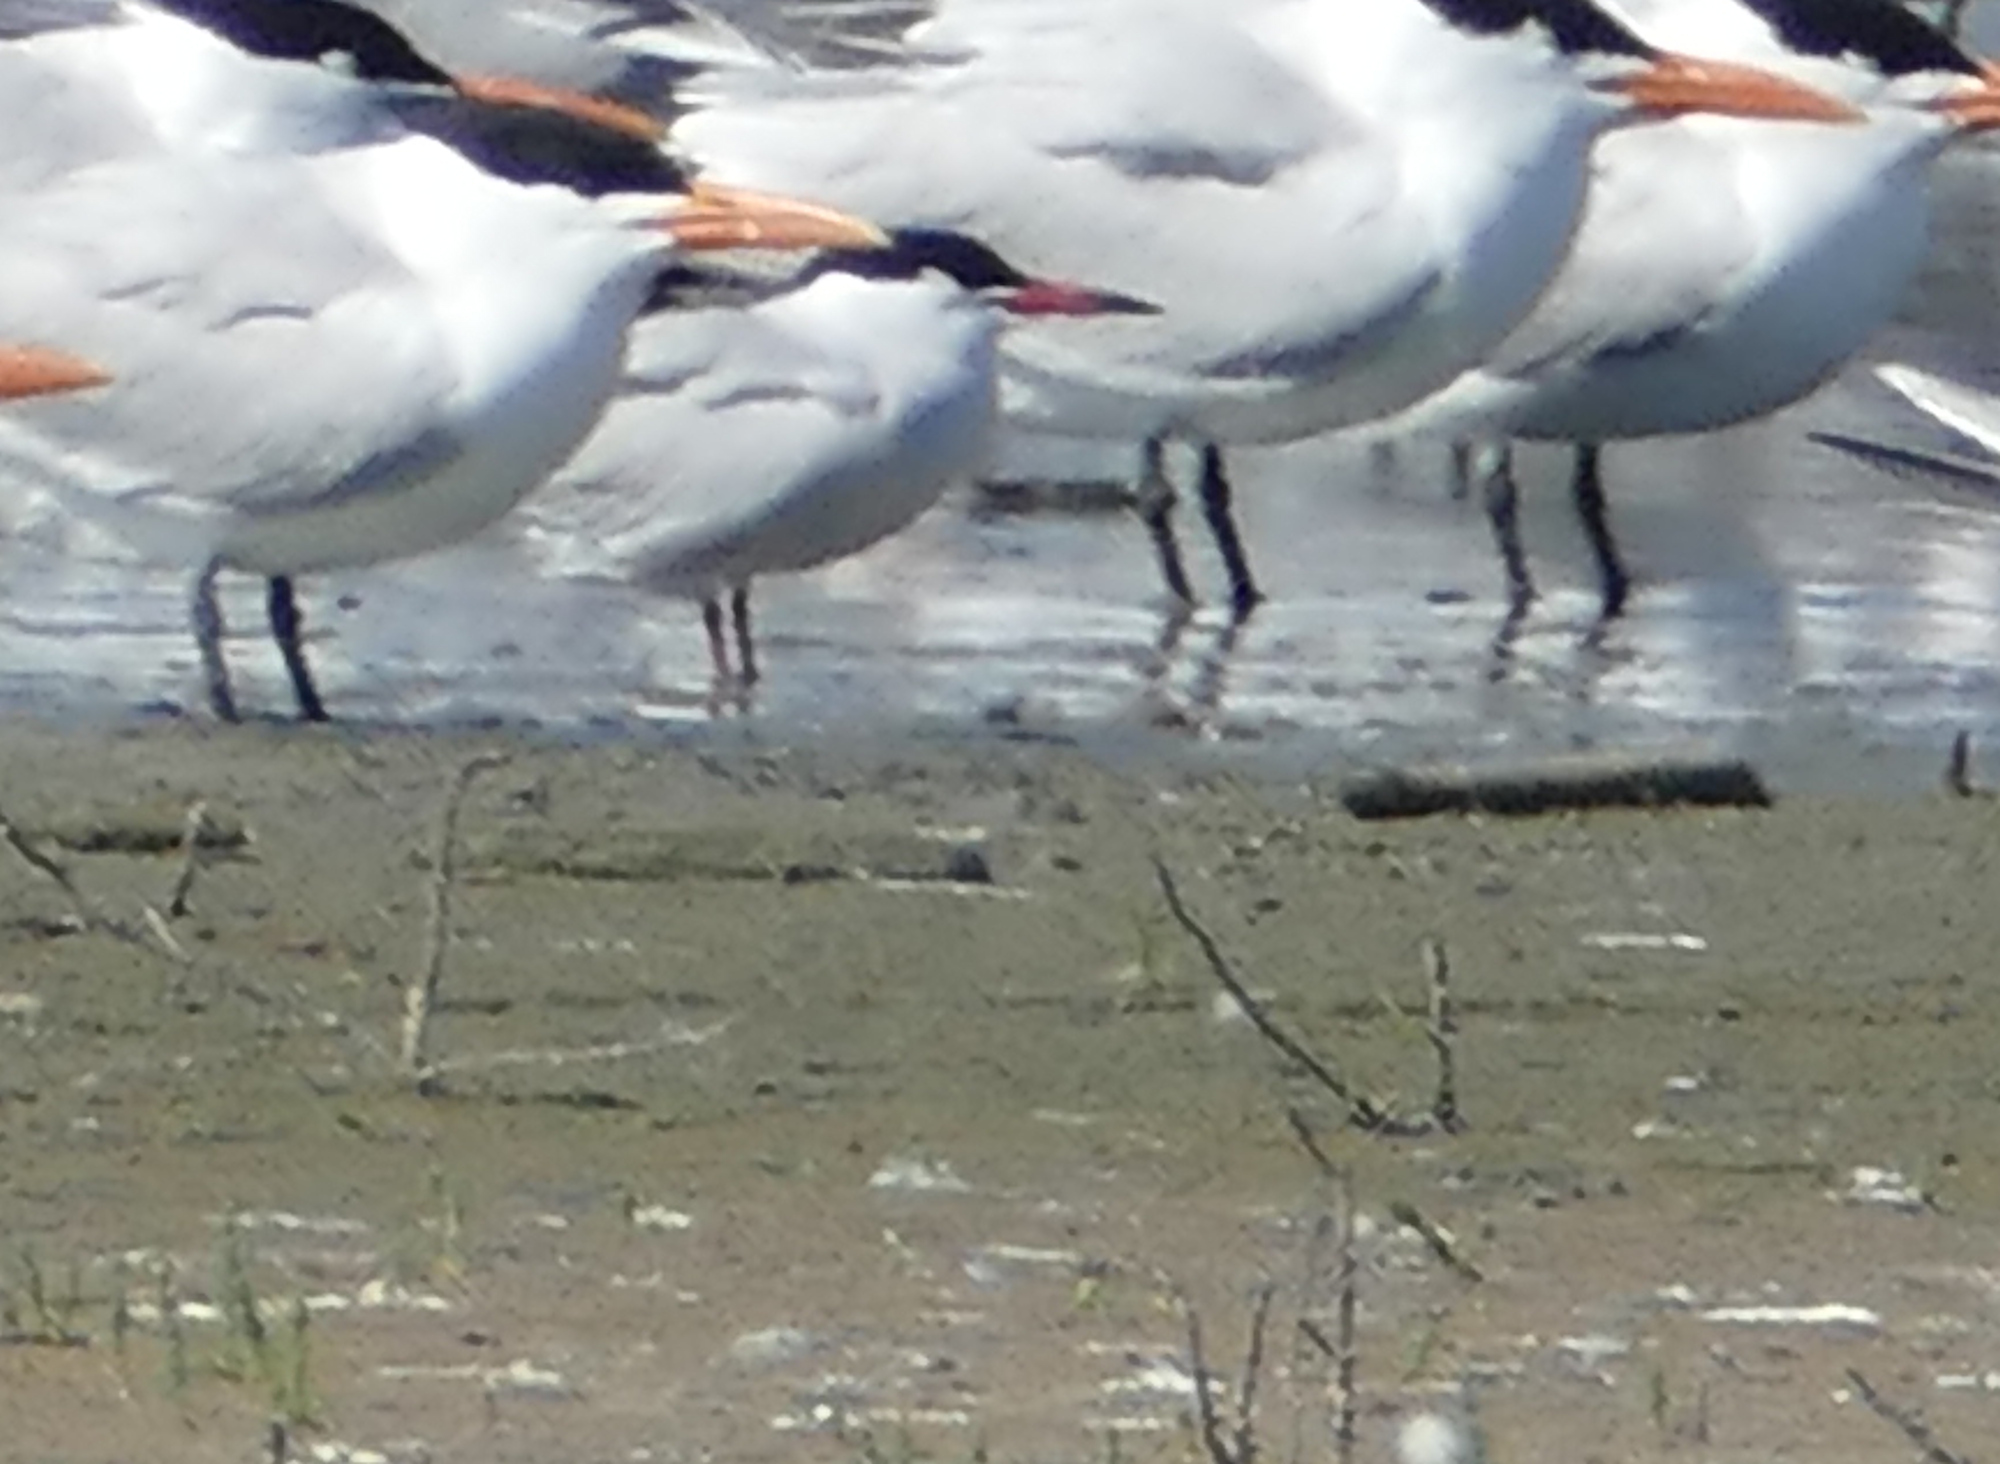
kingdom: Animalia
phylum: Chordata
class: Aves
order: Charadriiformes
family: Laridae
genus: Sterna
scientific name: Sterna hirundo
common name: Common tern
